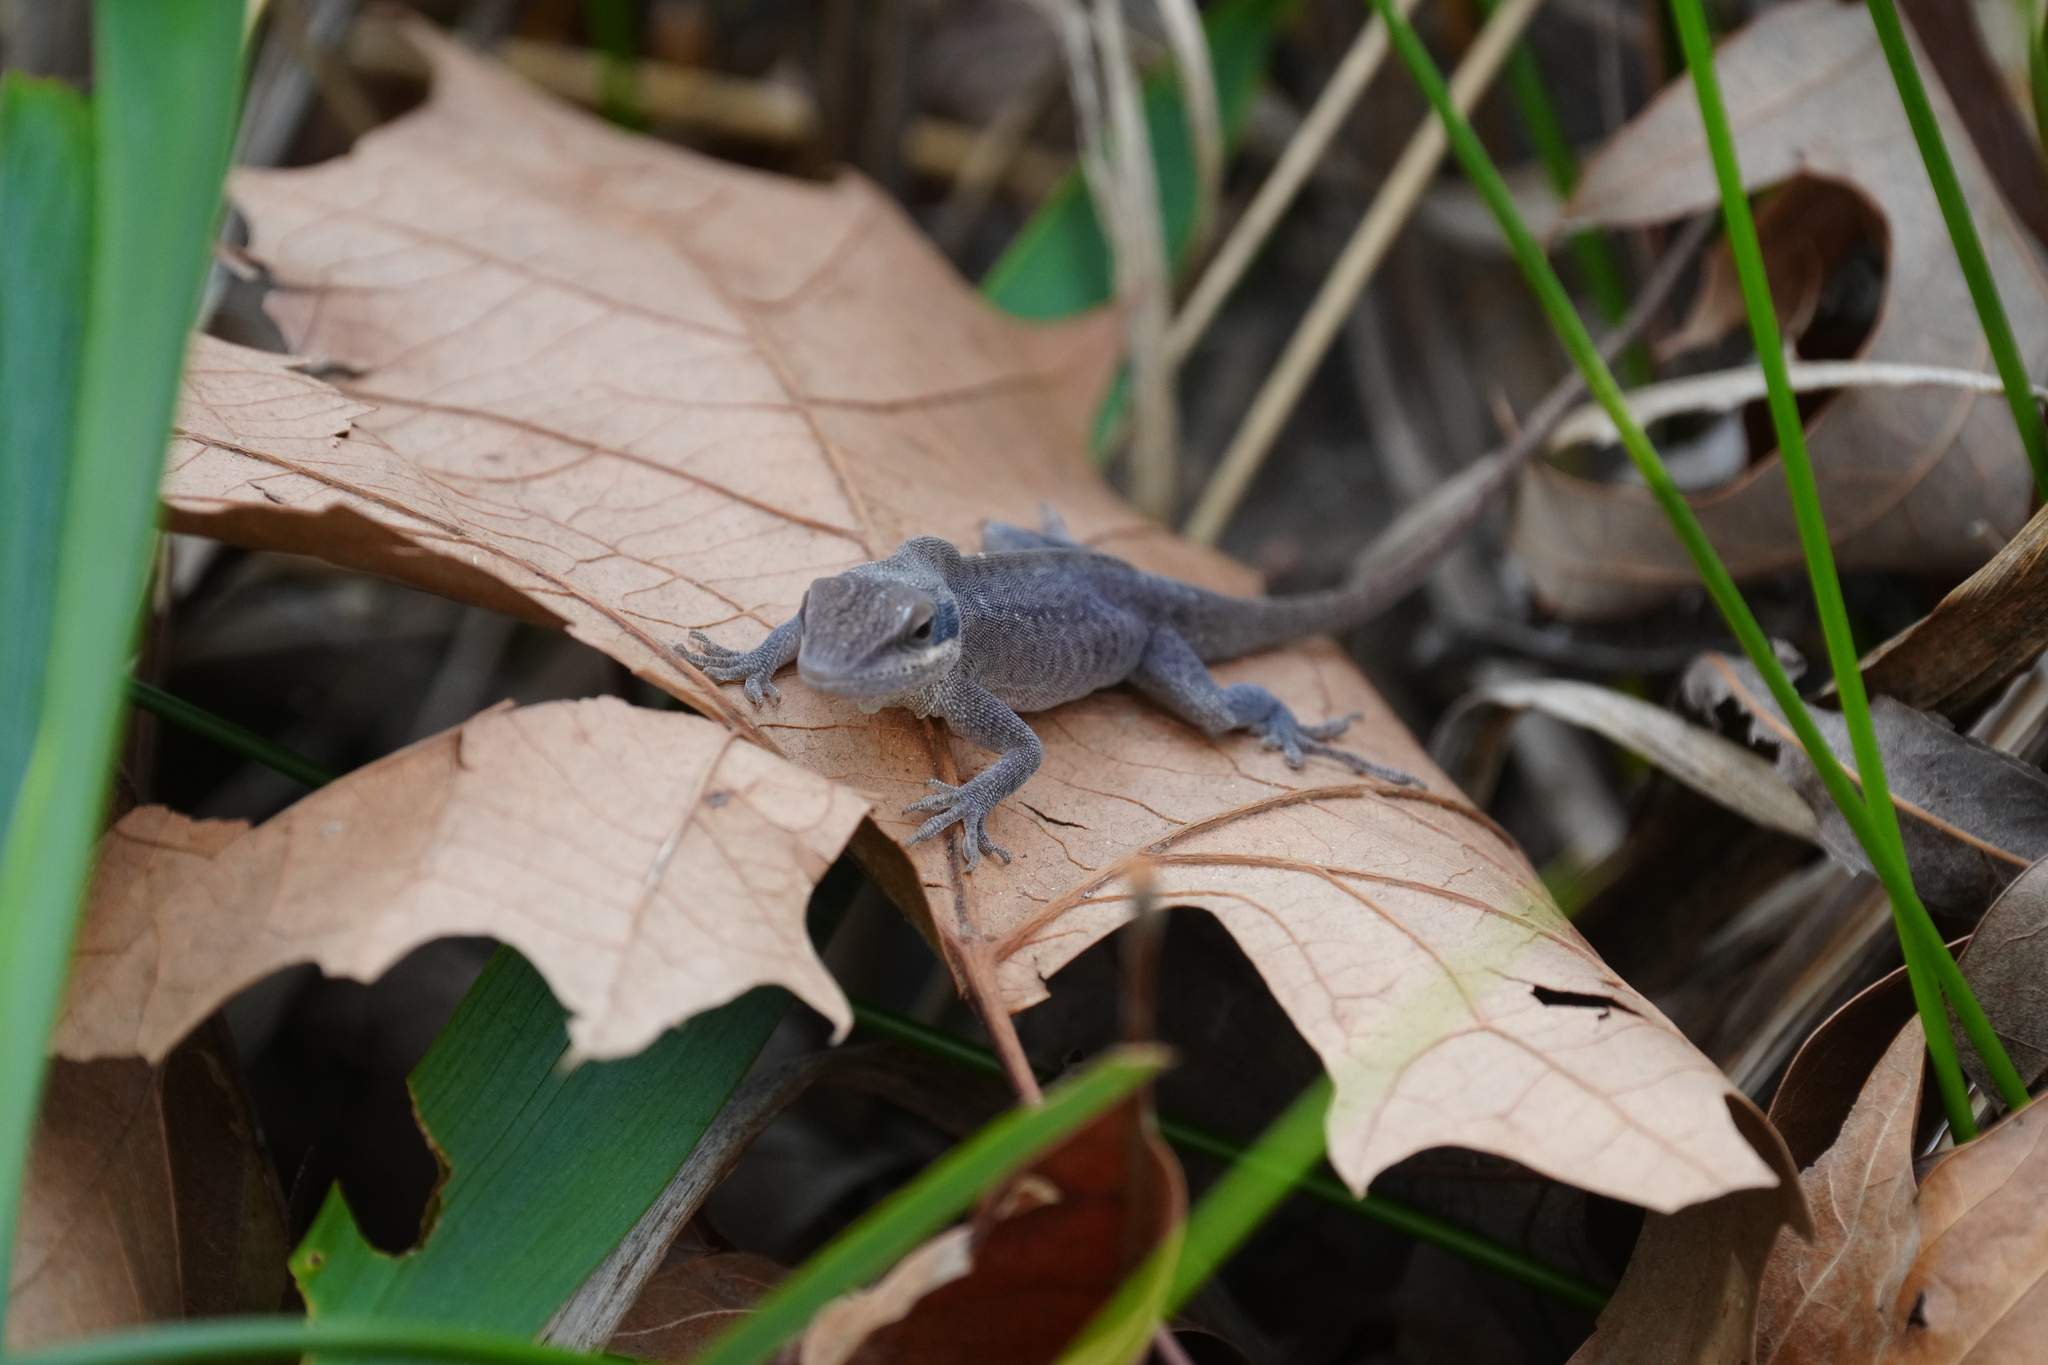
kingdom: Animalia
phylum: Chordata
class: Squamata
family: Dactyloidae
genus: Anolis
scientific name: Anolis carolinensis
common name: Green anole
